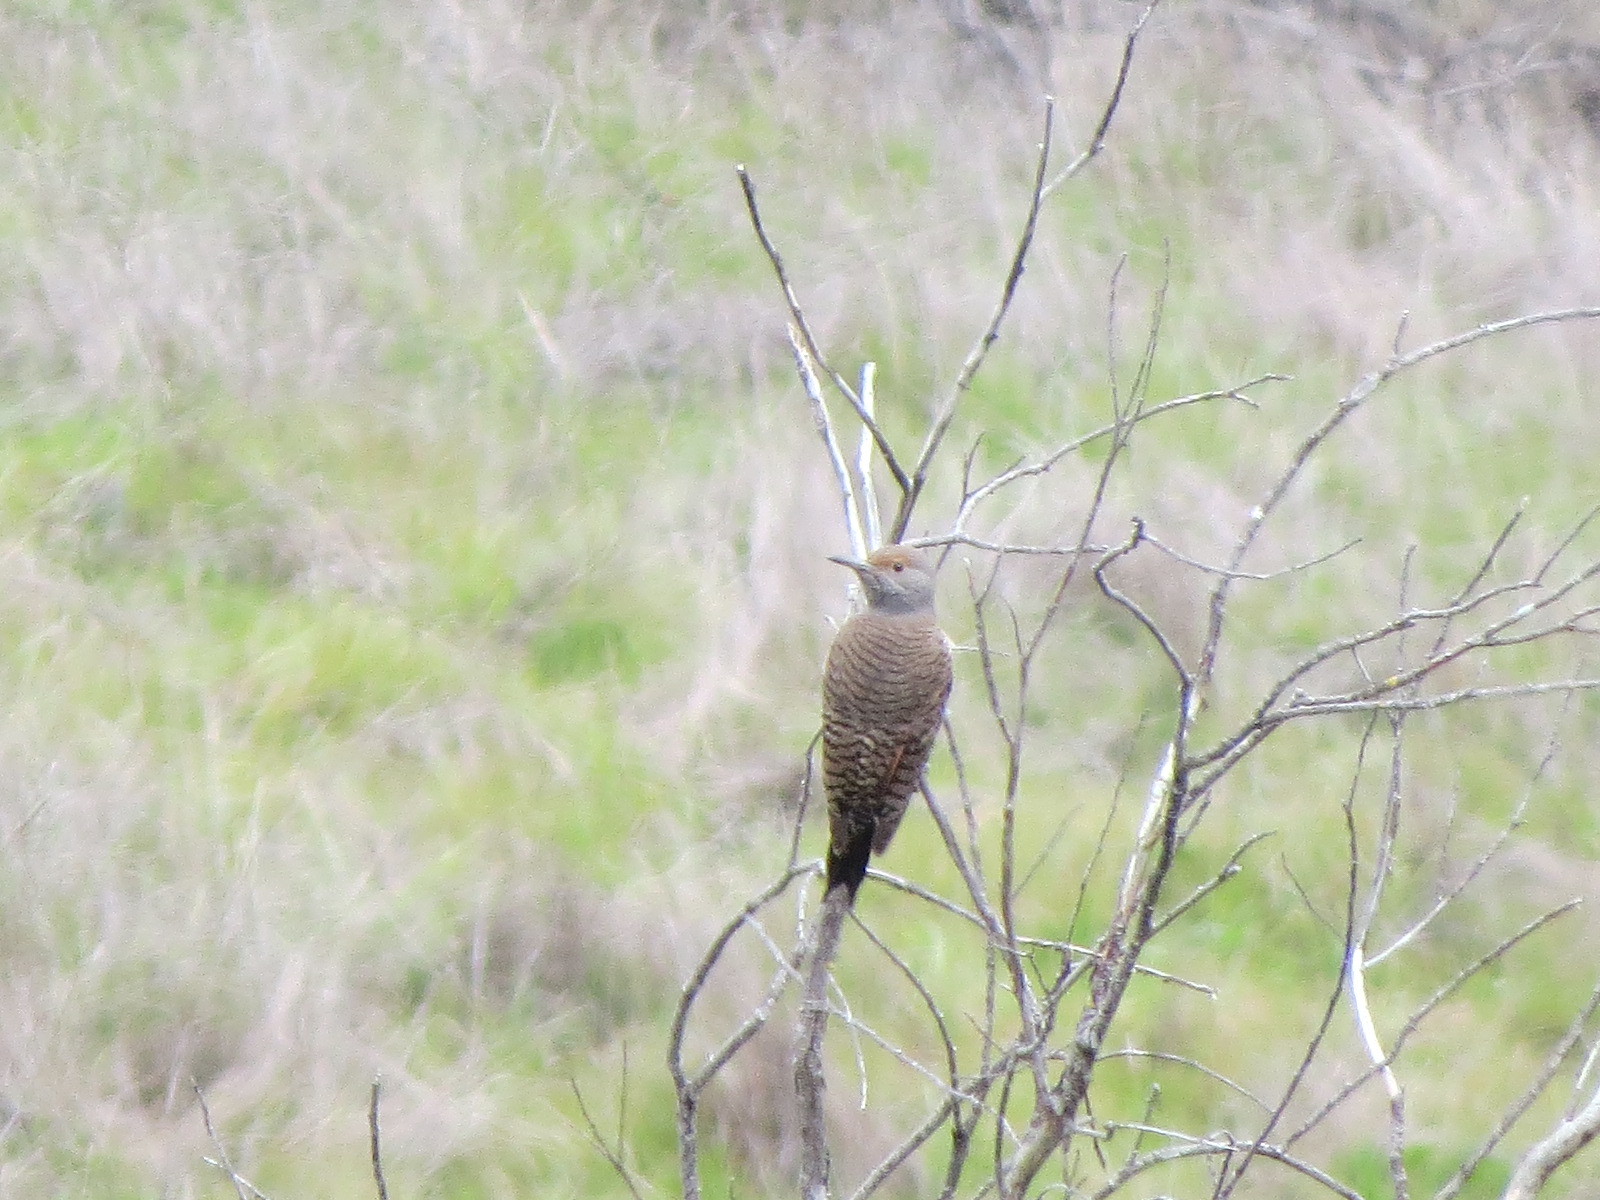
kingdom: Animalia
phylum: Chordata
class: Aves
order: Piciformes
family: Picidae
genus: Colaptes
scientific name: Colaptes auratus
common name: Northern flicker
